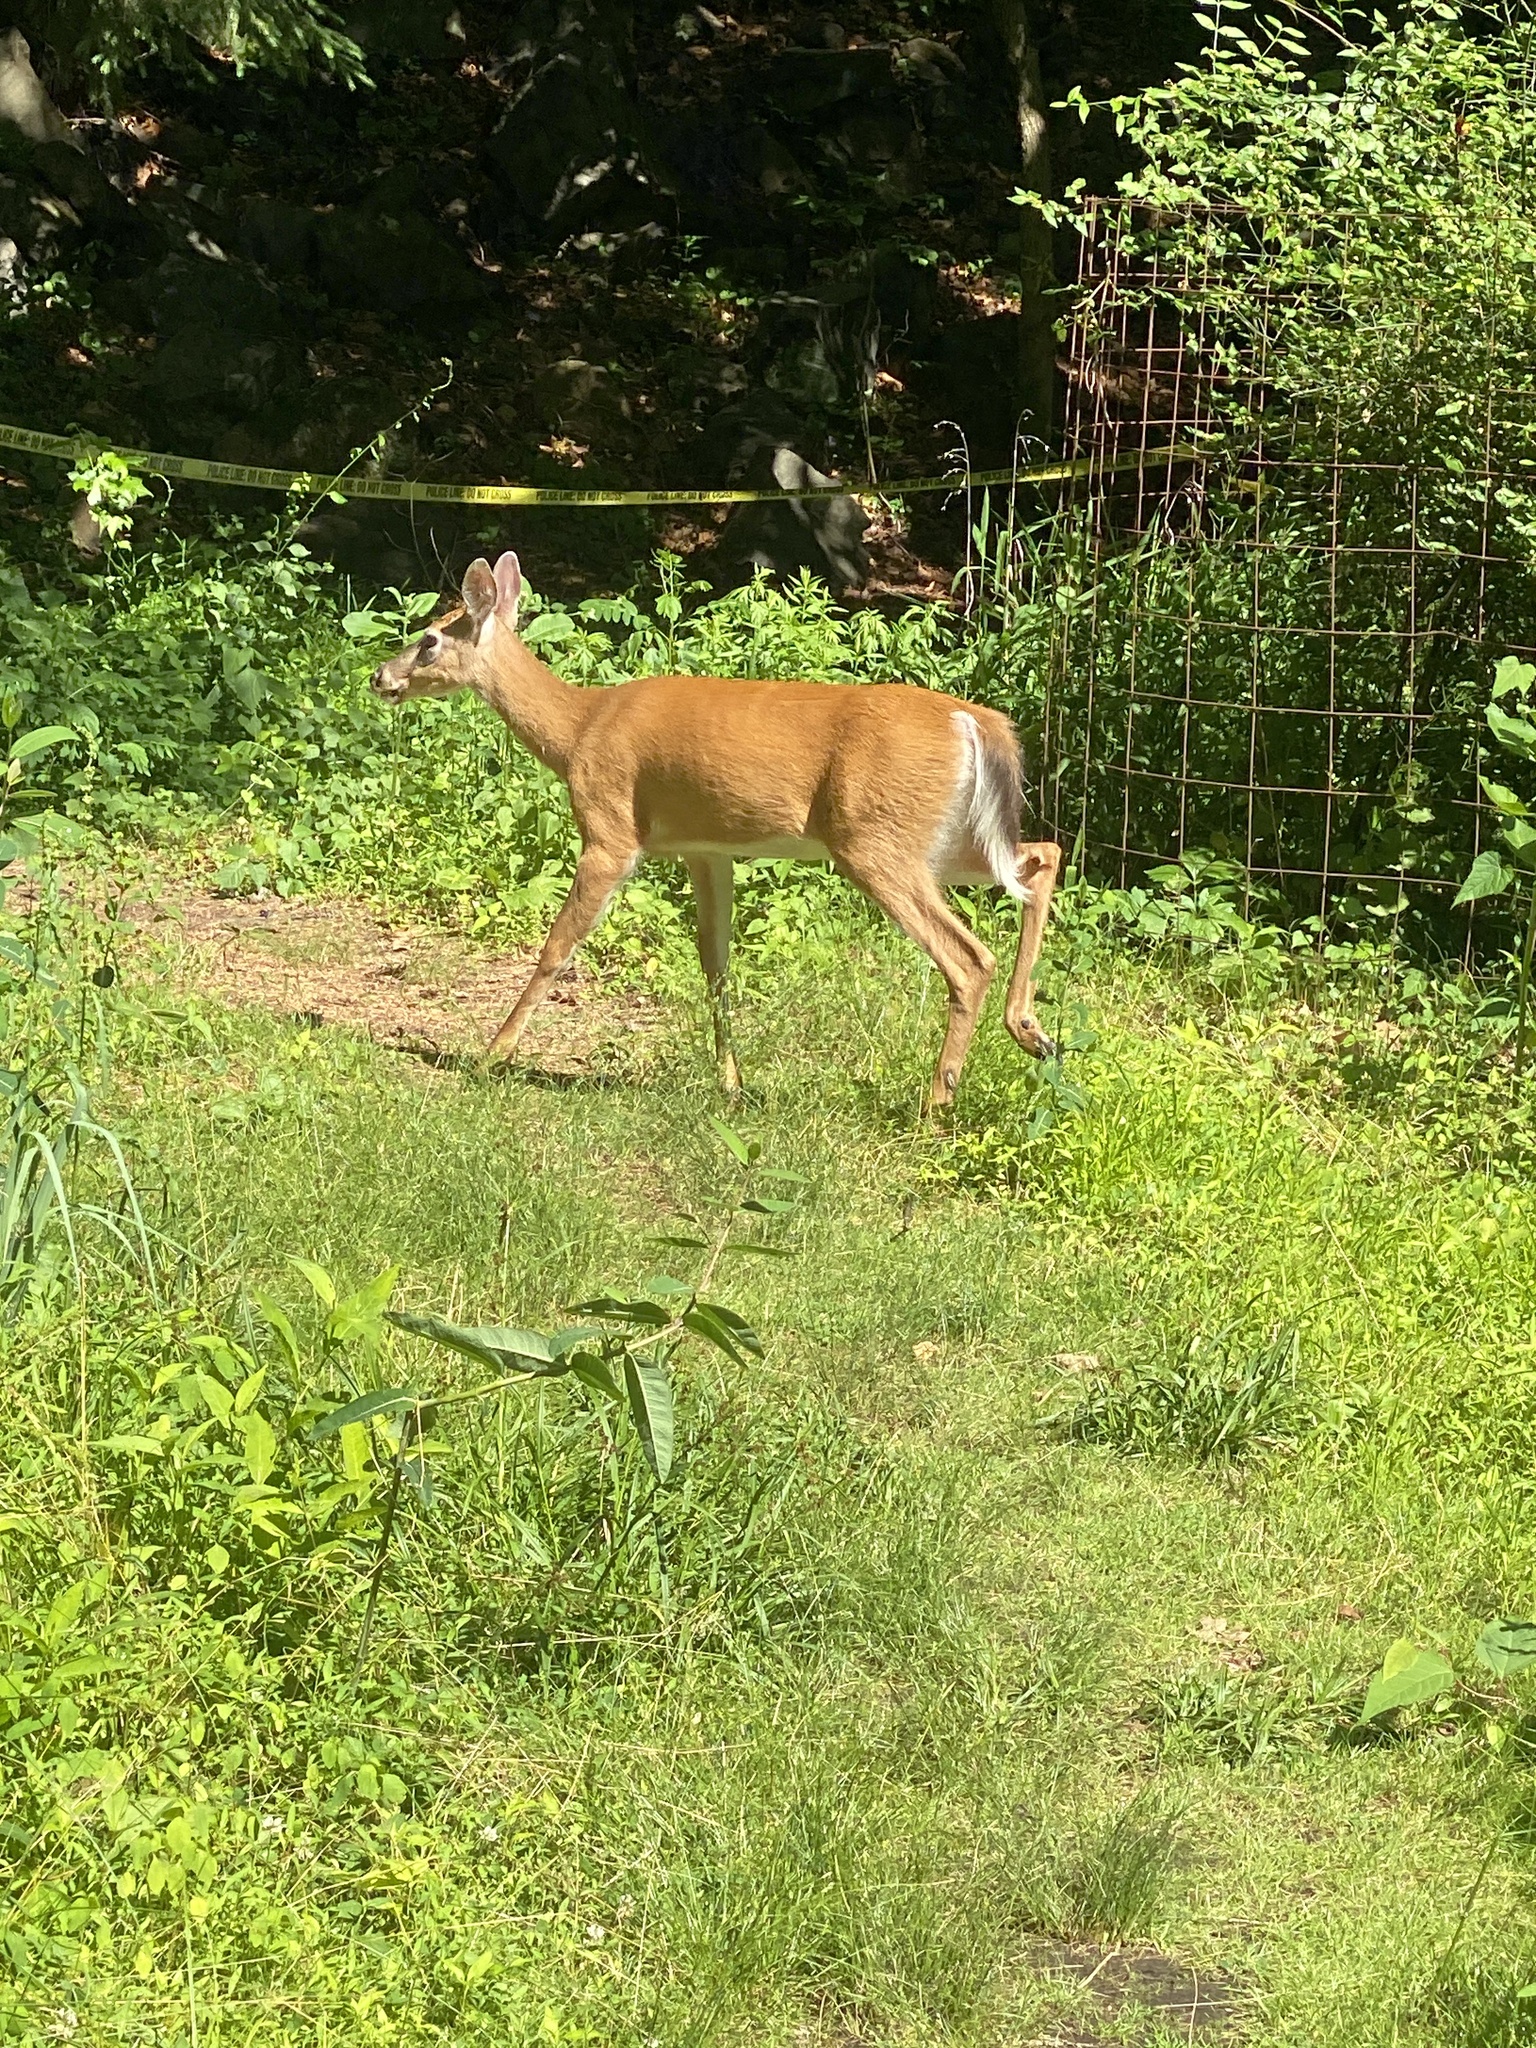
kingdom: Animalia
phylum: Chordata
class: Mammalia
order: Artiodactyla
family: Cervidae
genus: Odocoileus
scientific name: Odocoileus virginianus
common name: White-tailed deer
